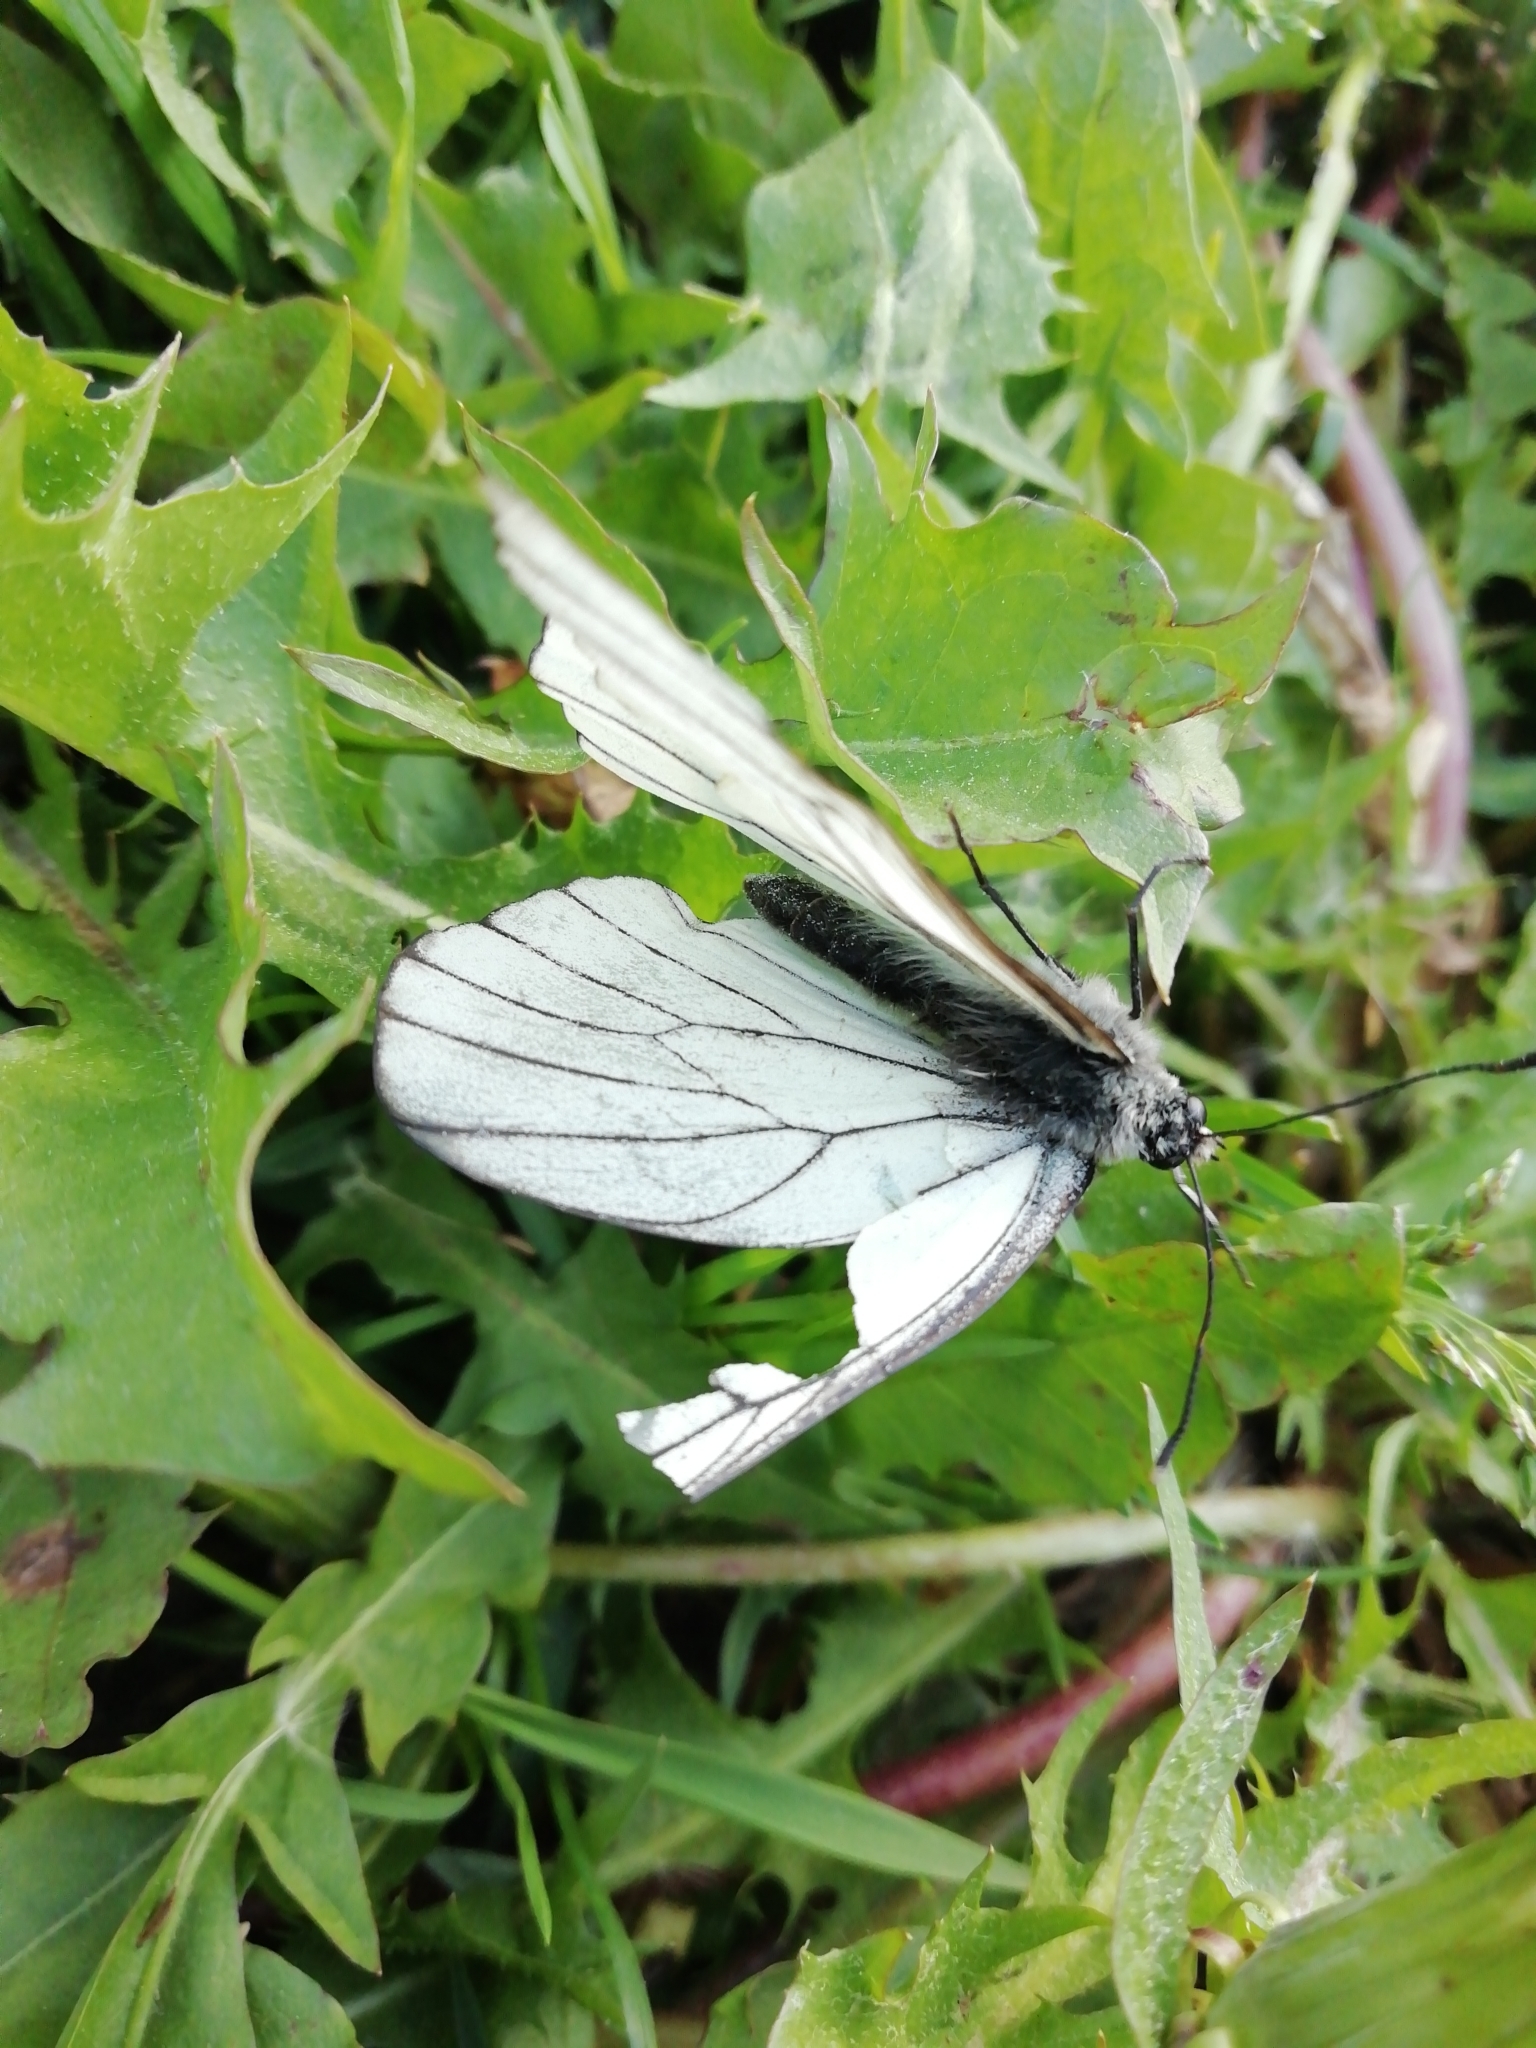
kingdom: Animalia
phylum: Arthropoda
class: Insecta
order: Lepidoptera
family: Pieridae
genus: Aporia
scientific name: Aporia crataegi
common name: Black-veined white
